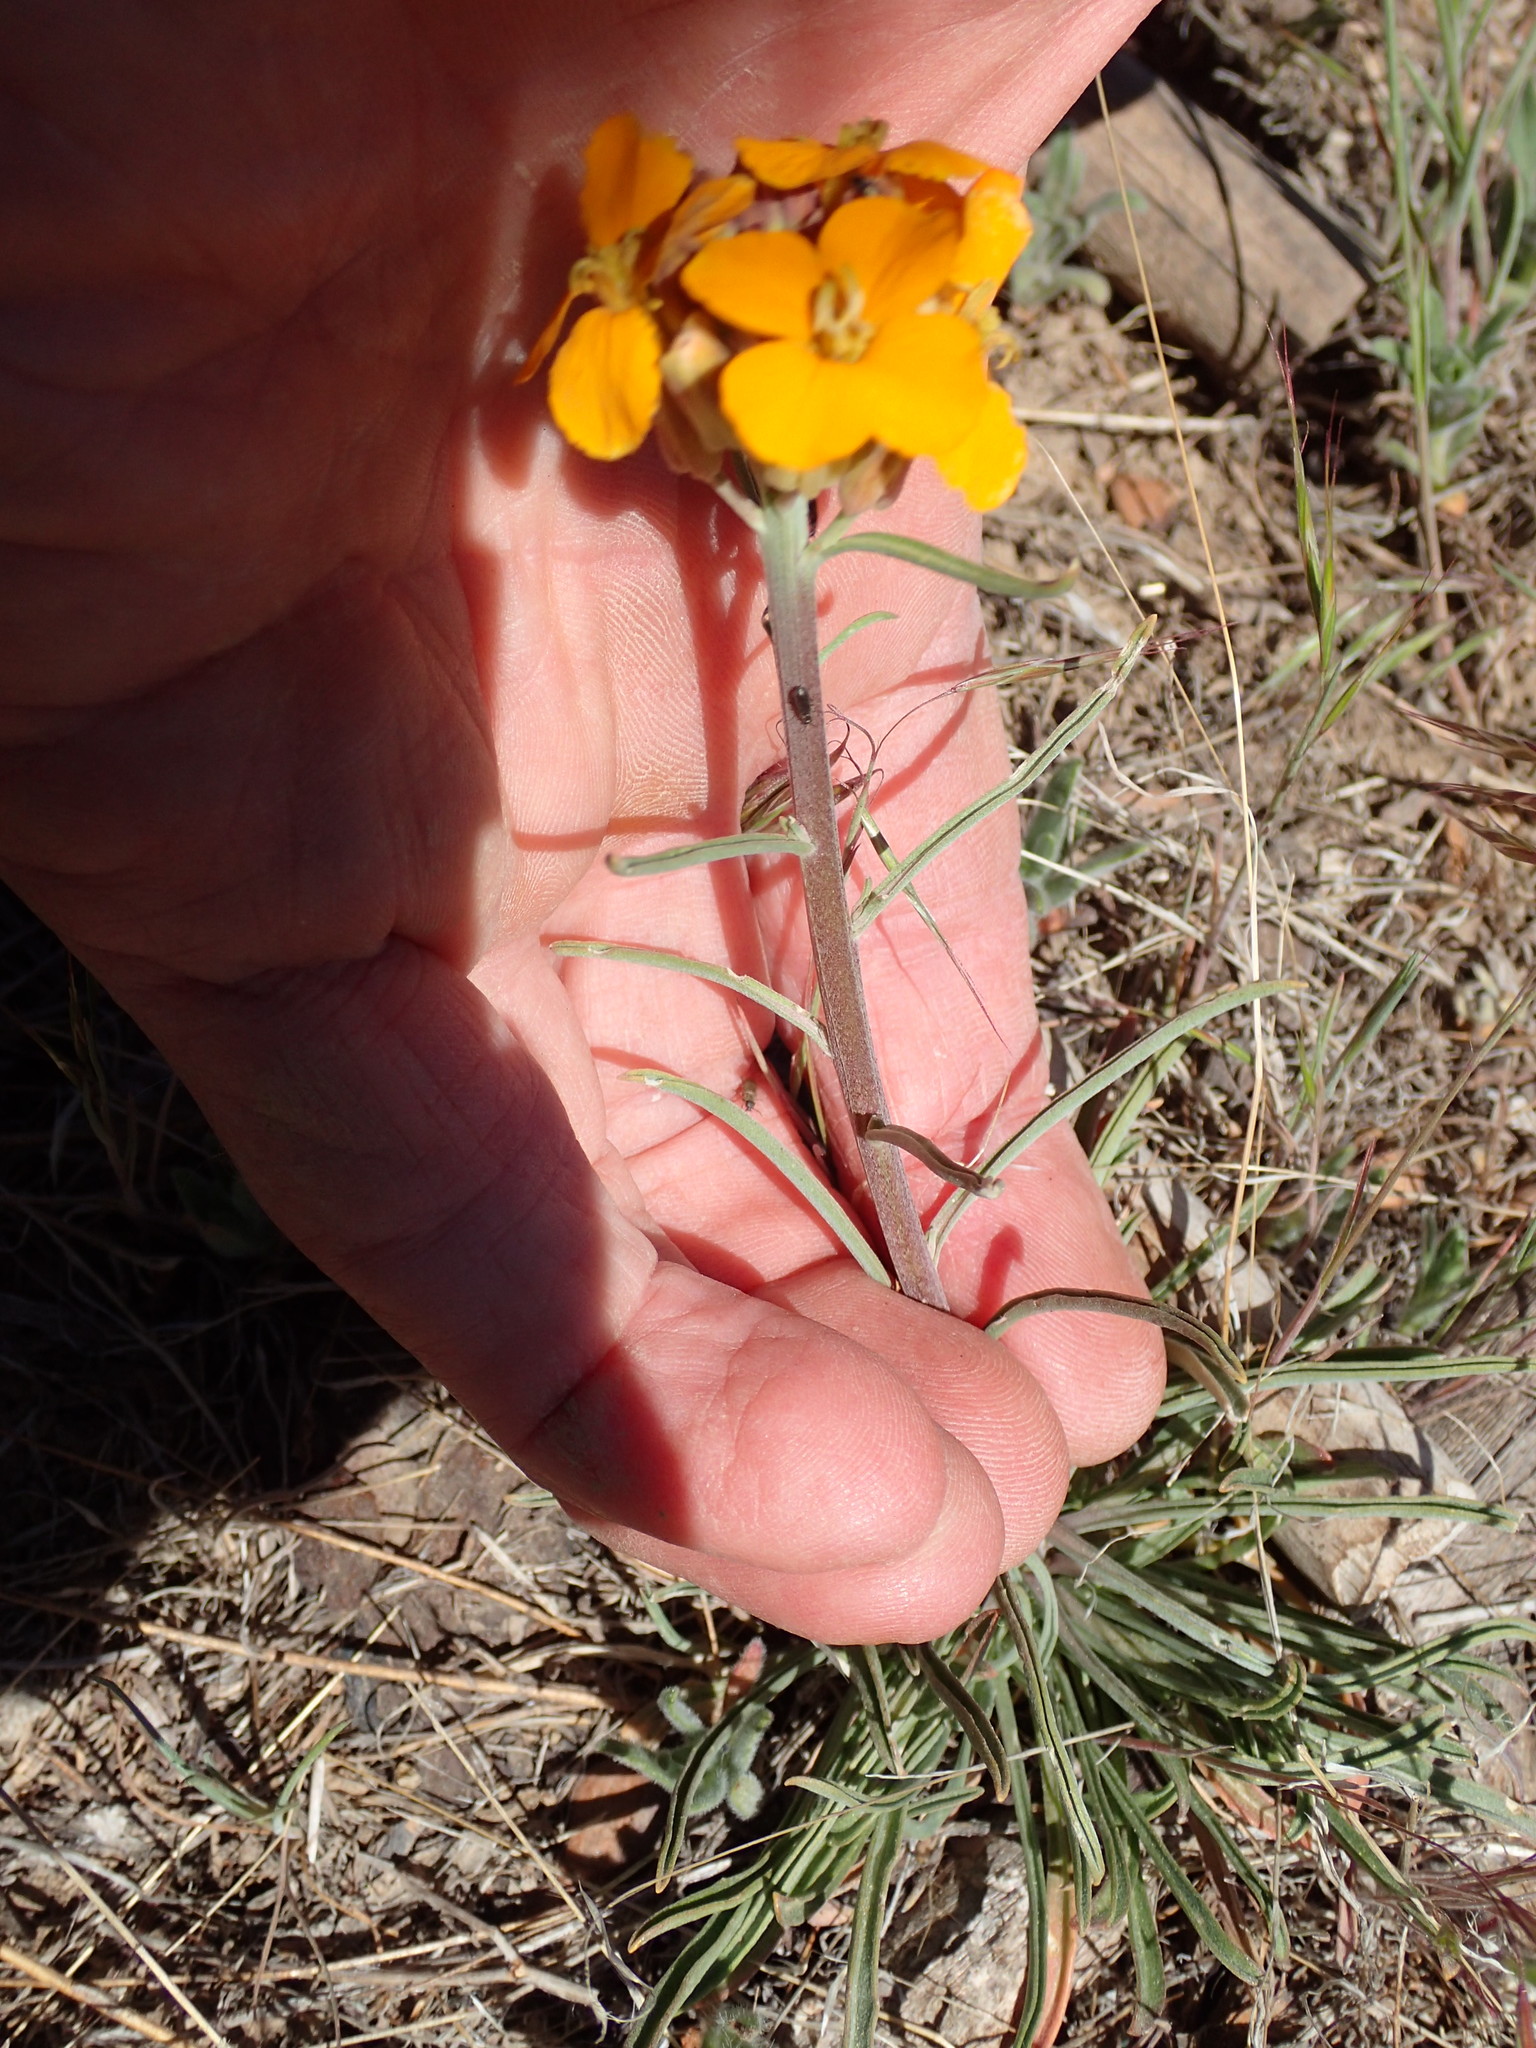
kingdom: Plantae
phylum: Tracheophyta
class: Magnoliopsida
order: Brassicales
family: Brassicaceae
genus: Erysimum
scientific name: Erysimum capitatum
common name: Western wallflower
